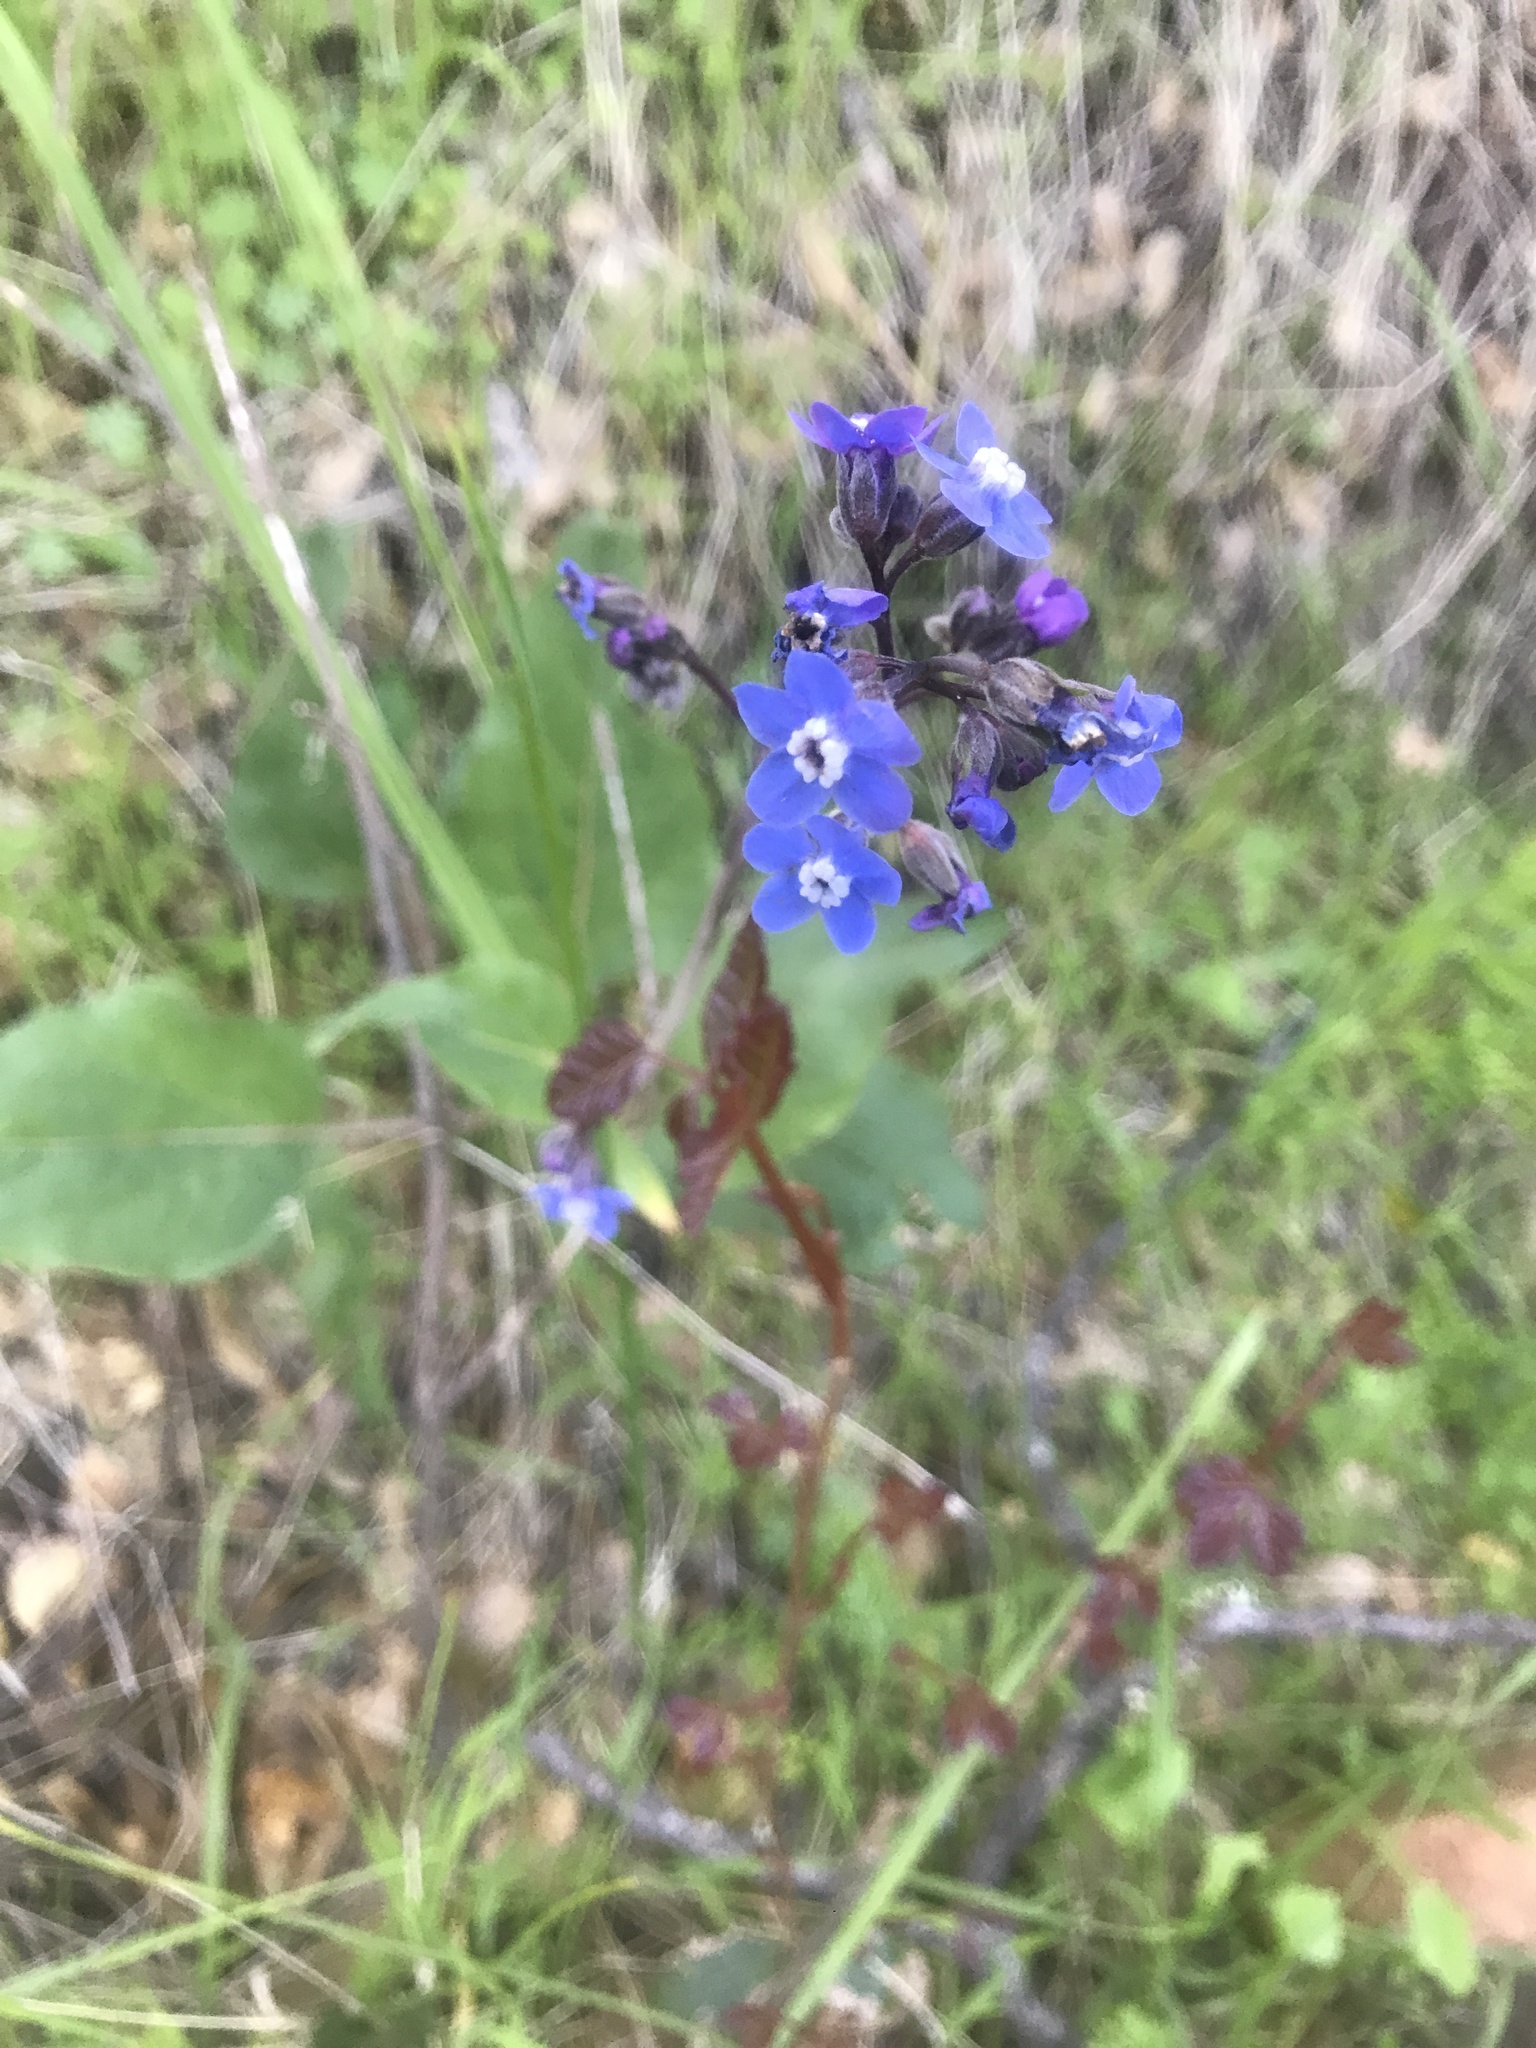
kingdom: Plantae
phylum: Tracheophyta
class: Magnoliopsida
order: Boraginales
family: Boraginaceae
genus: Adelinia
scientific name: Adelinia grande
